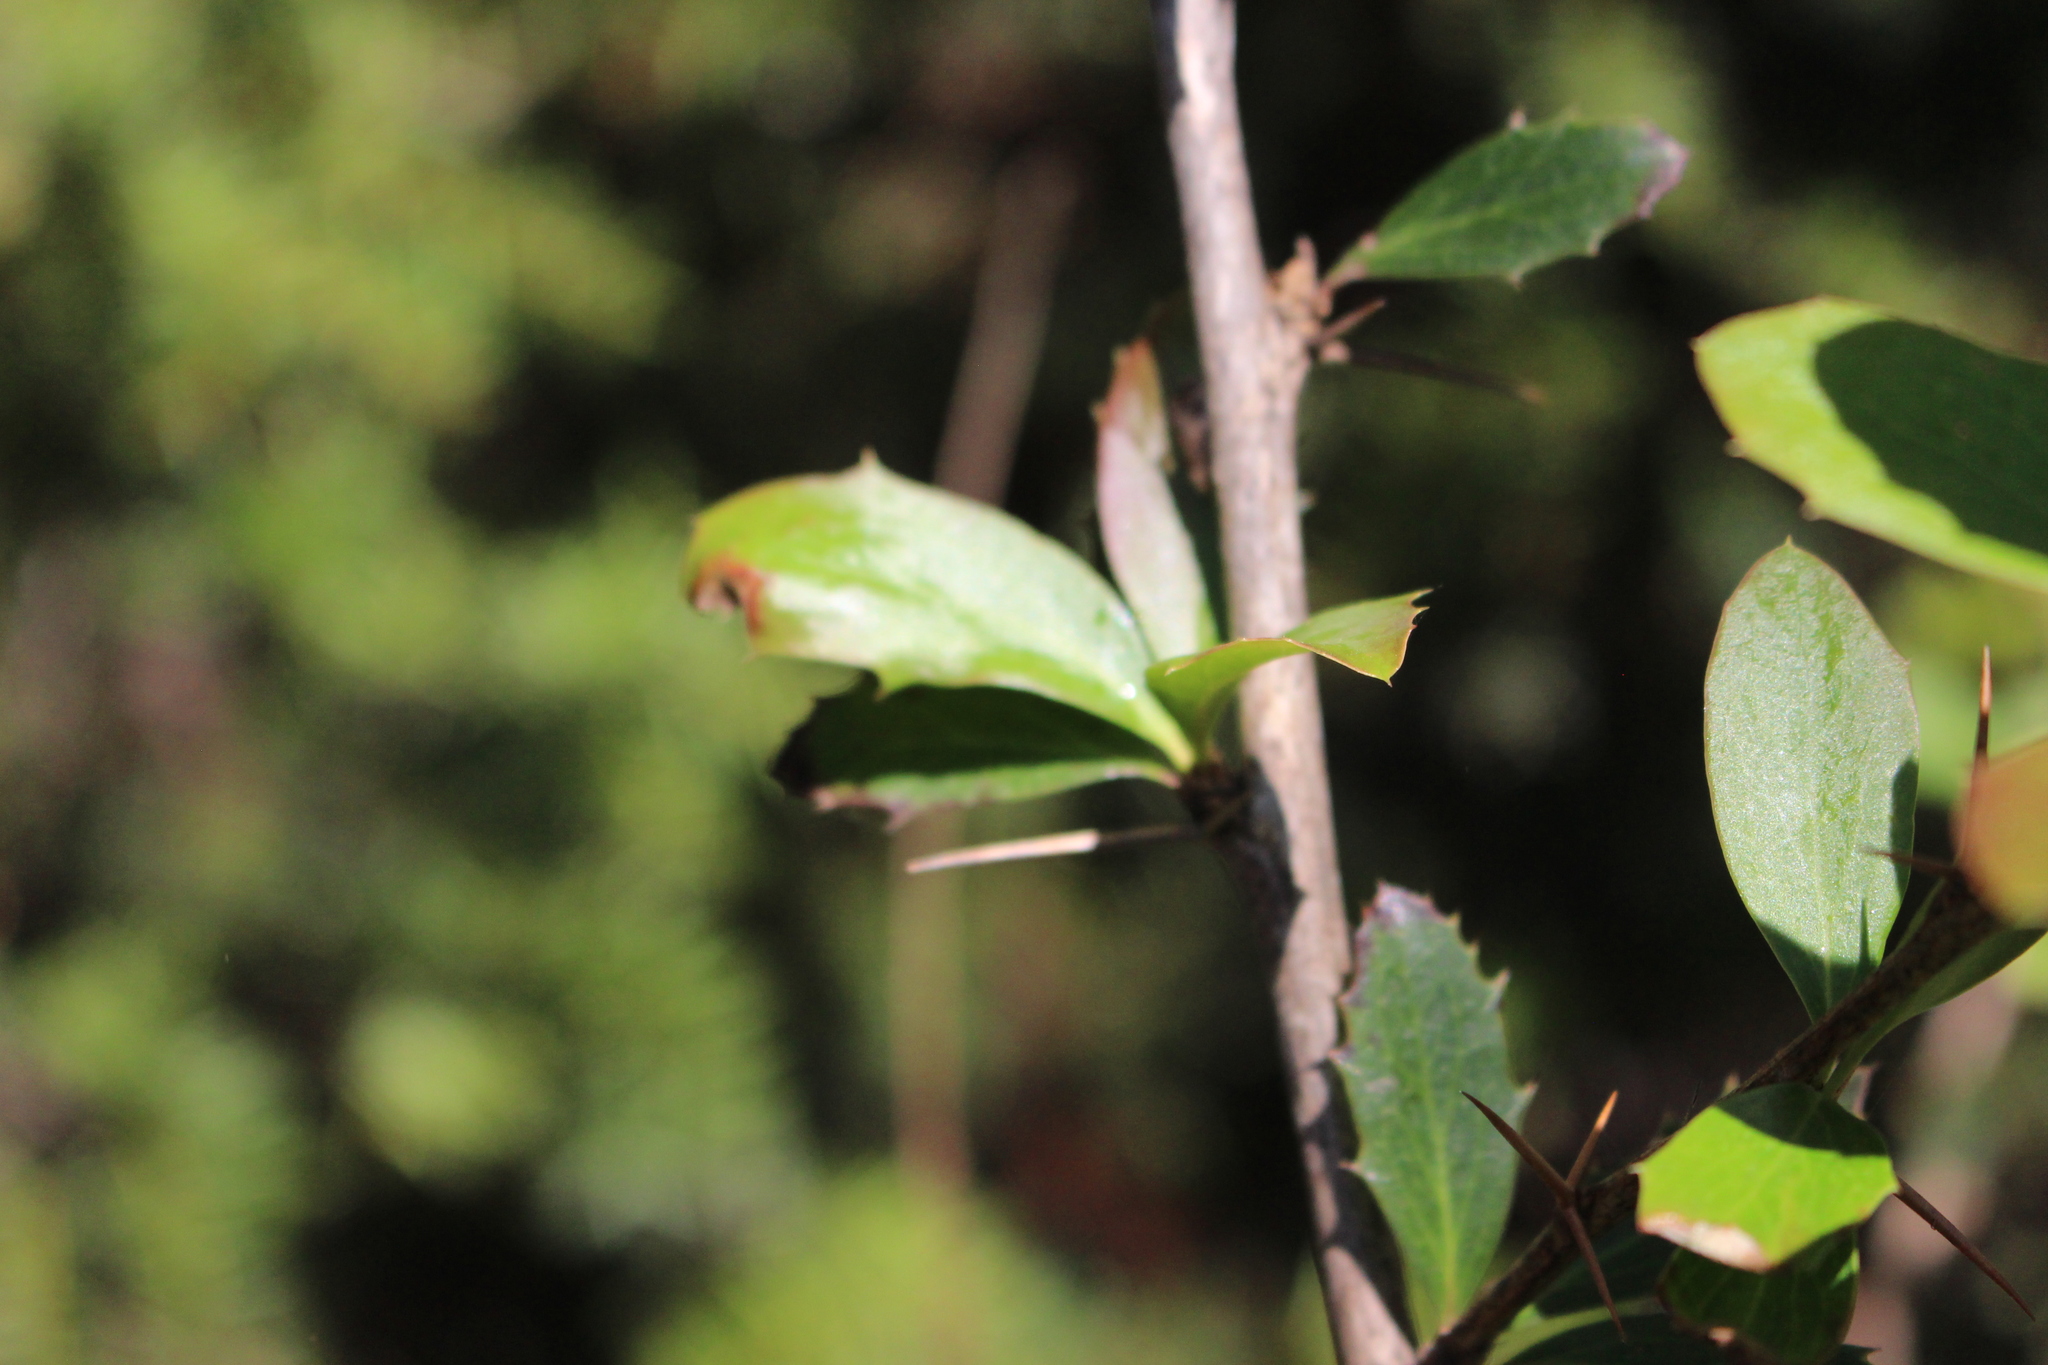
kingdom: Plantae
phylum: Tracheophyta
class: Magnoliopsida
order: Ranunculales
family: Berberidaceae
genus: Berberis
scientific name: Berberis glaucocarpa
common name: Great barberry
